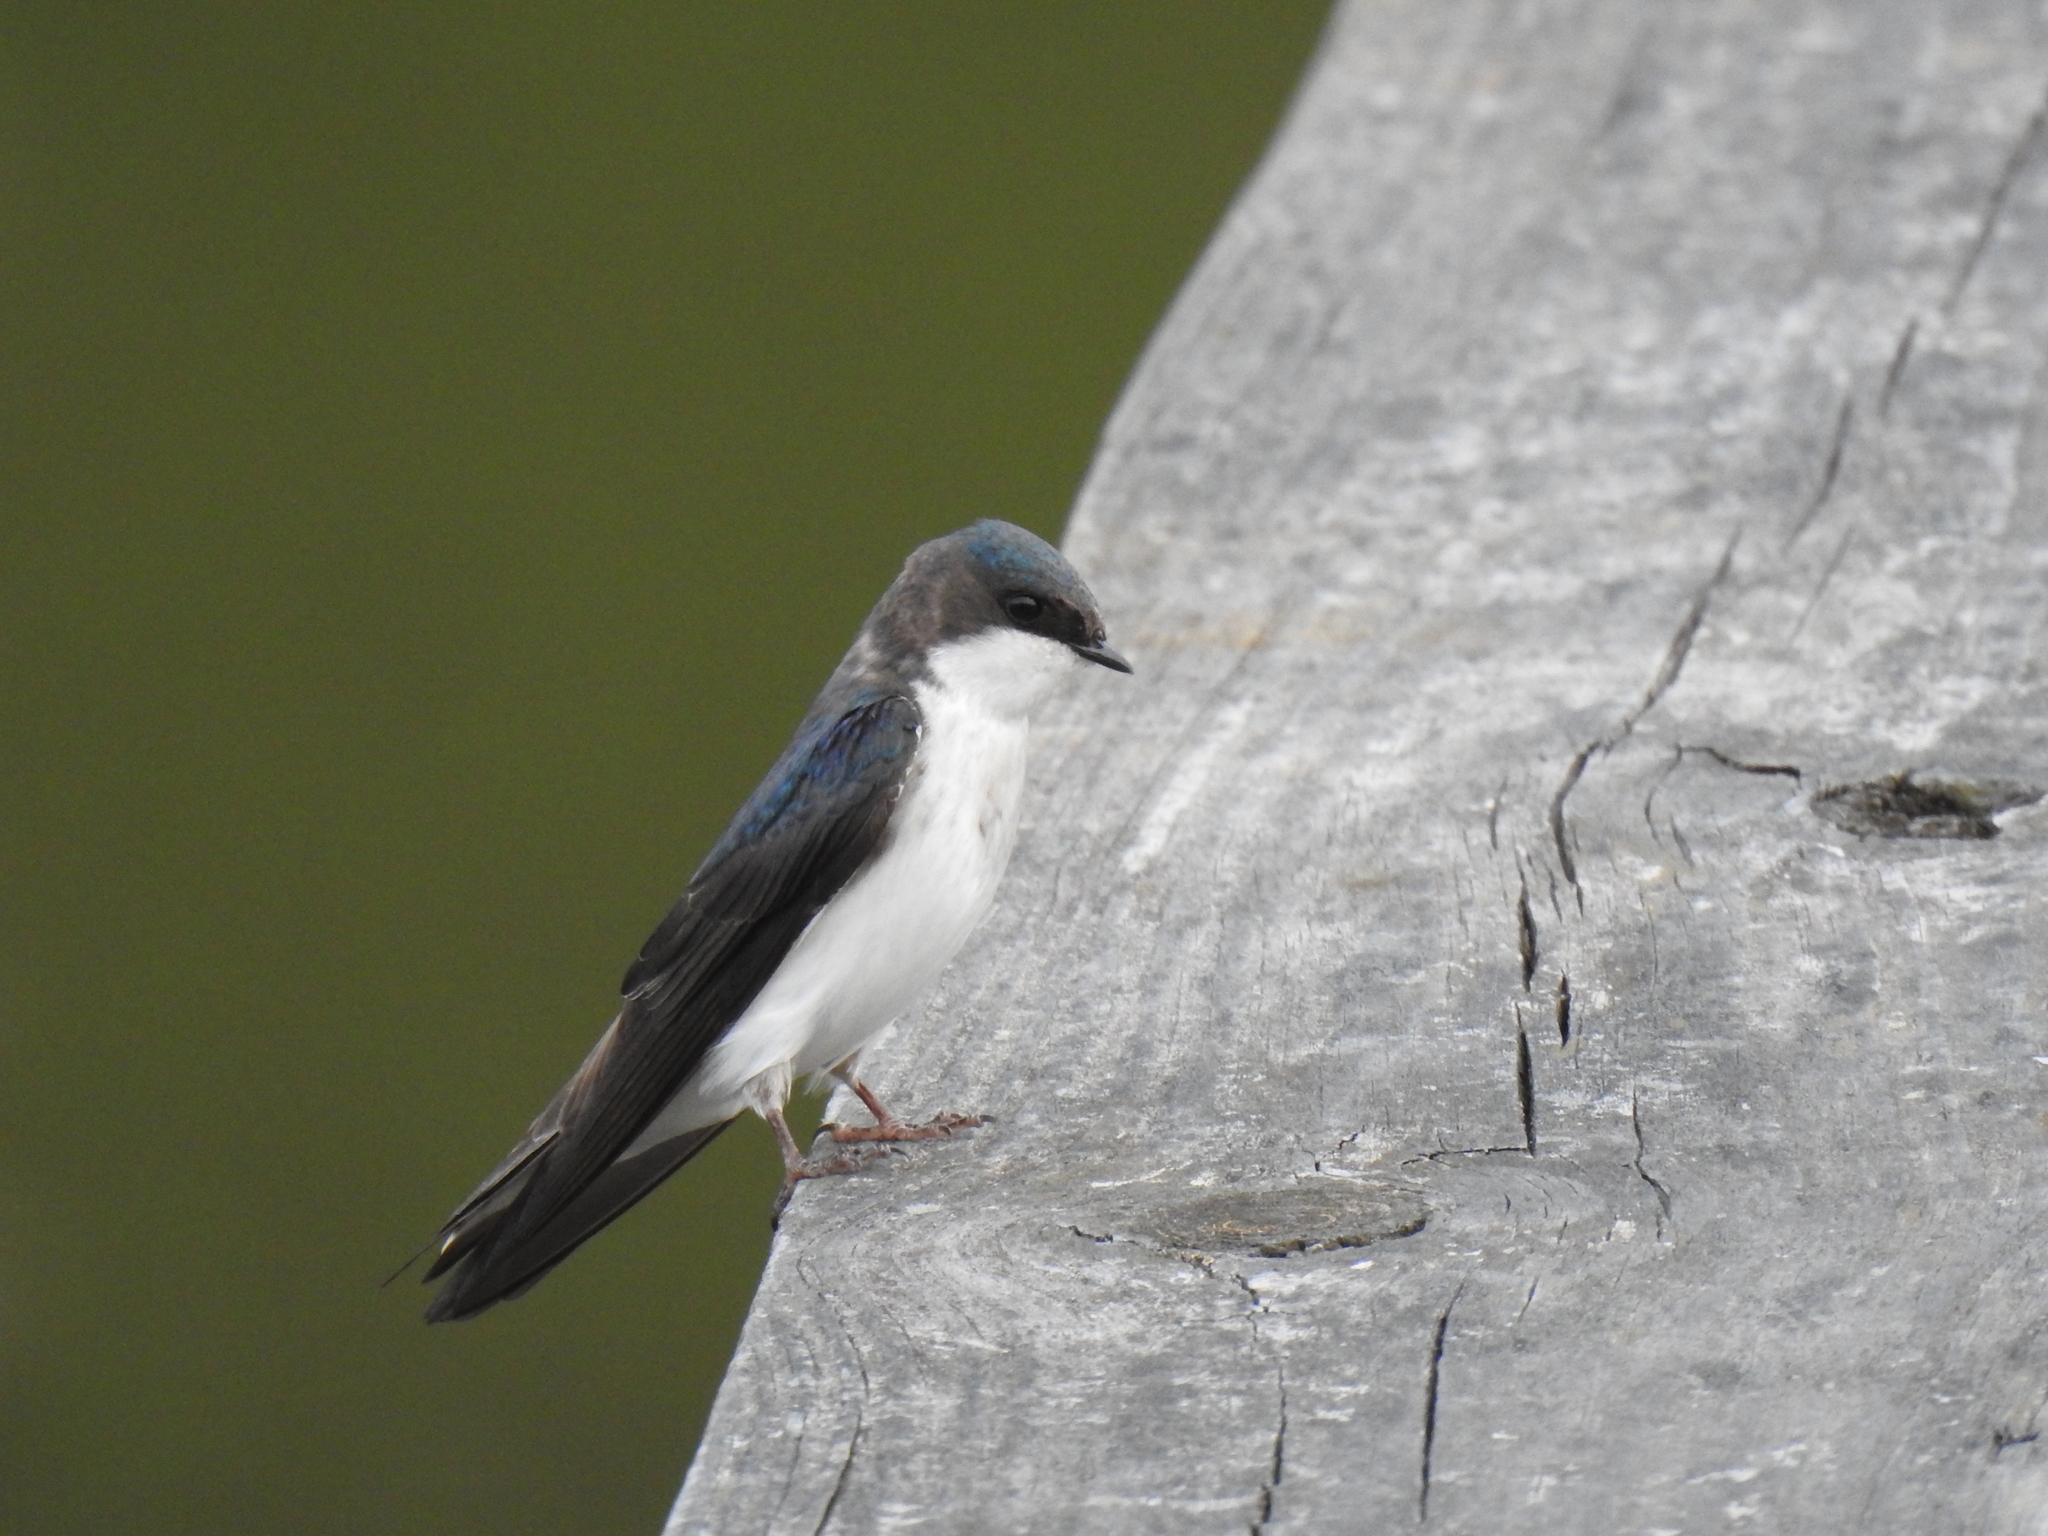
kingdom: Animalia
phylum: Chordata
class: Aves
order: Passeriformes
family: Hirundinidae
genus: Tachycineta
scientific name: Tachycineta bicolor
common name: Tree swallow
